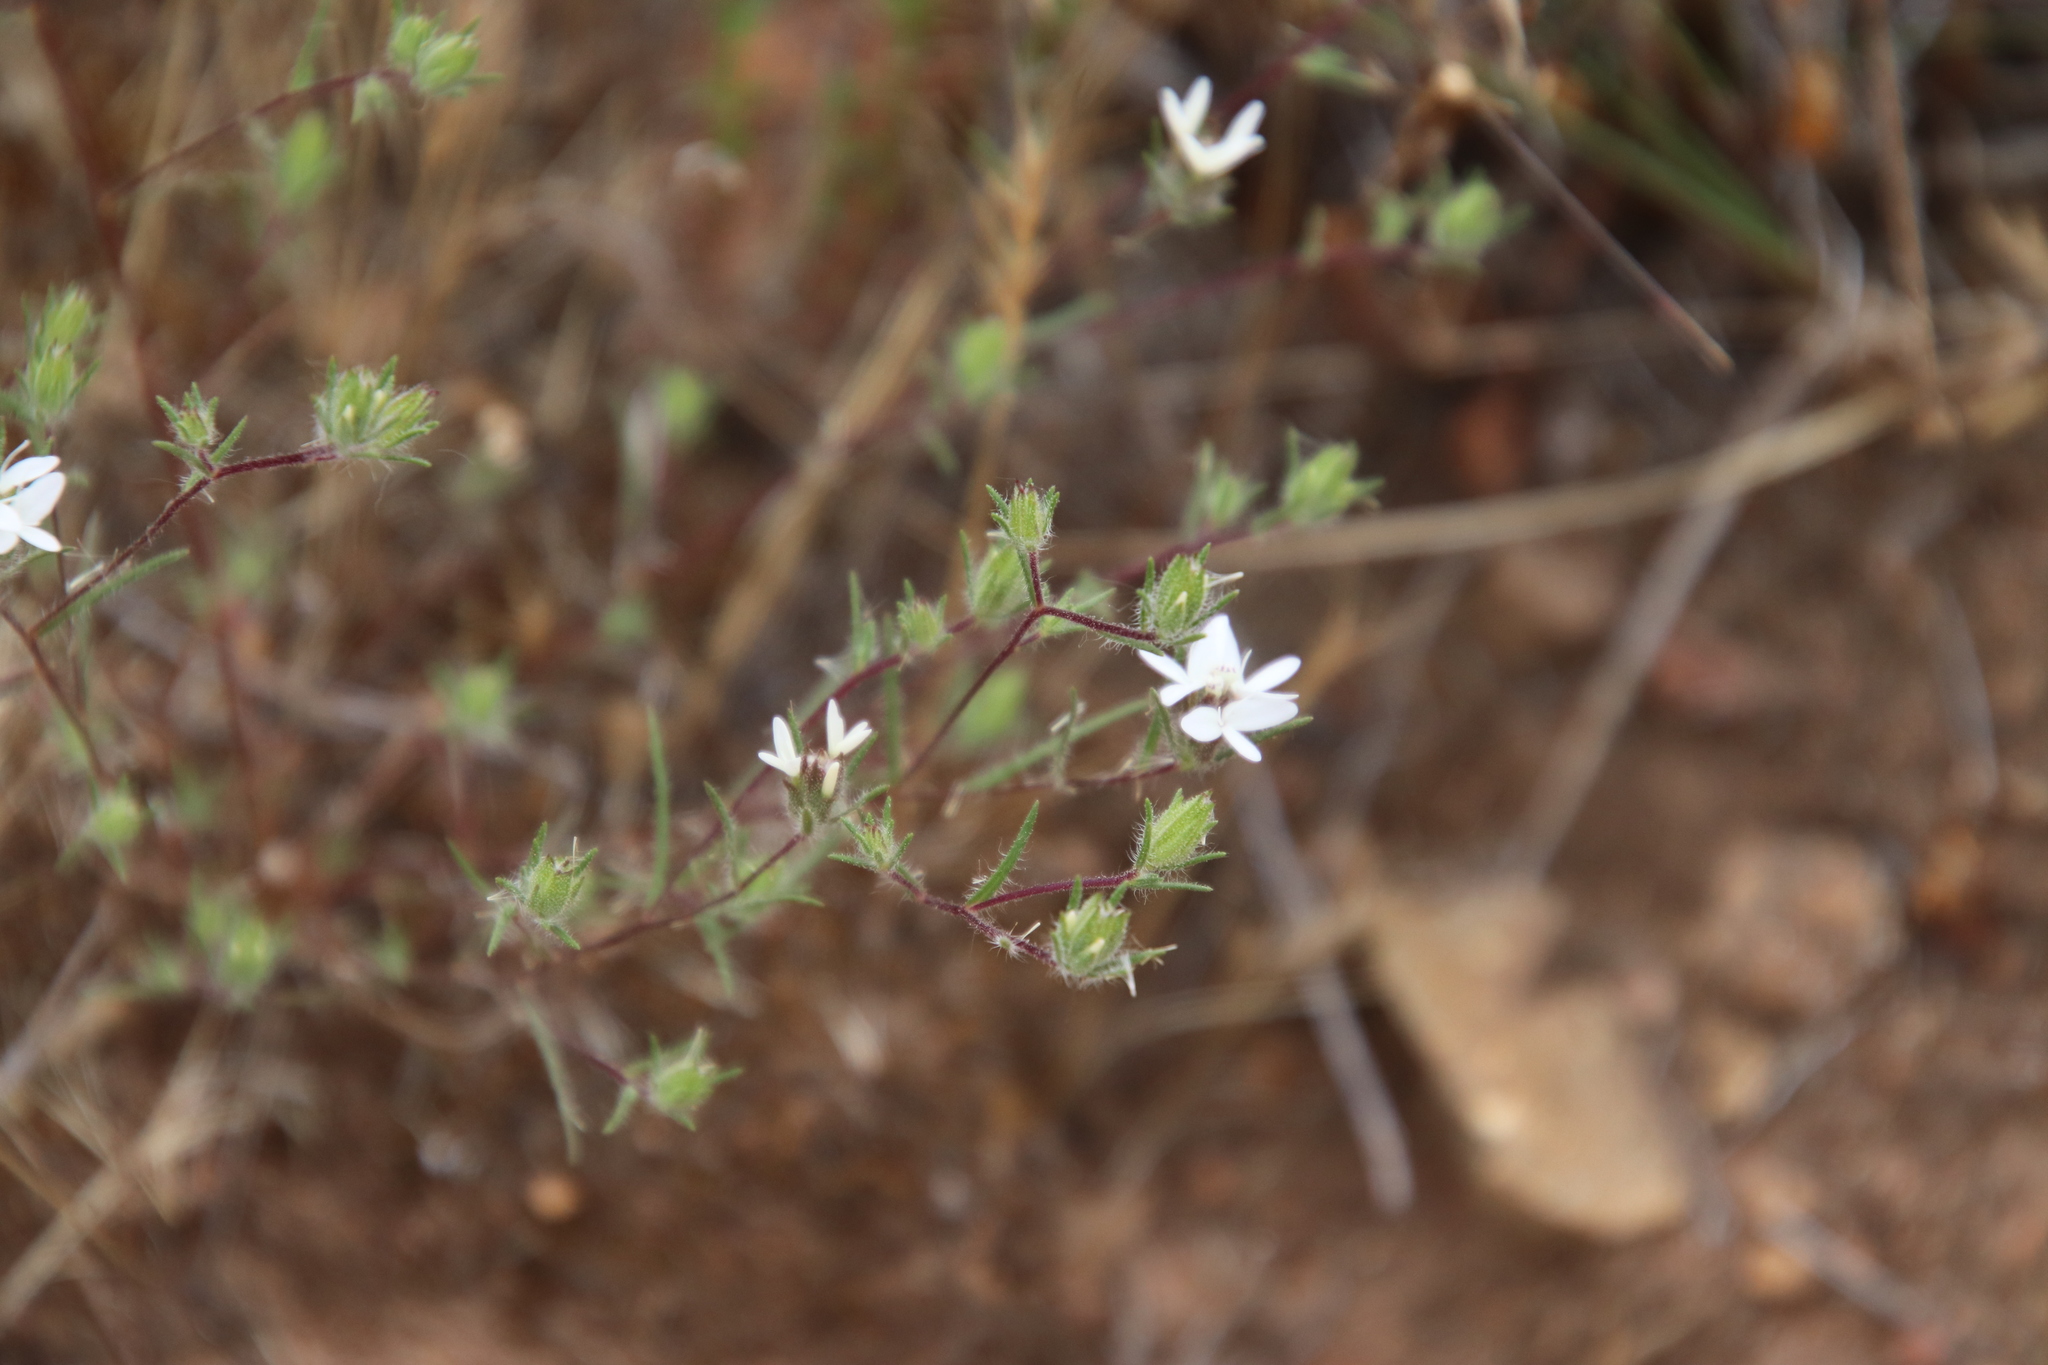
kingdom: Plantae
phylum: Tracheophyta
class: Magnoliopsida
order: Asterales
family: Asteraceae
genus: Osmadenia
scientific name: Osmadenia tenella
